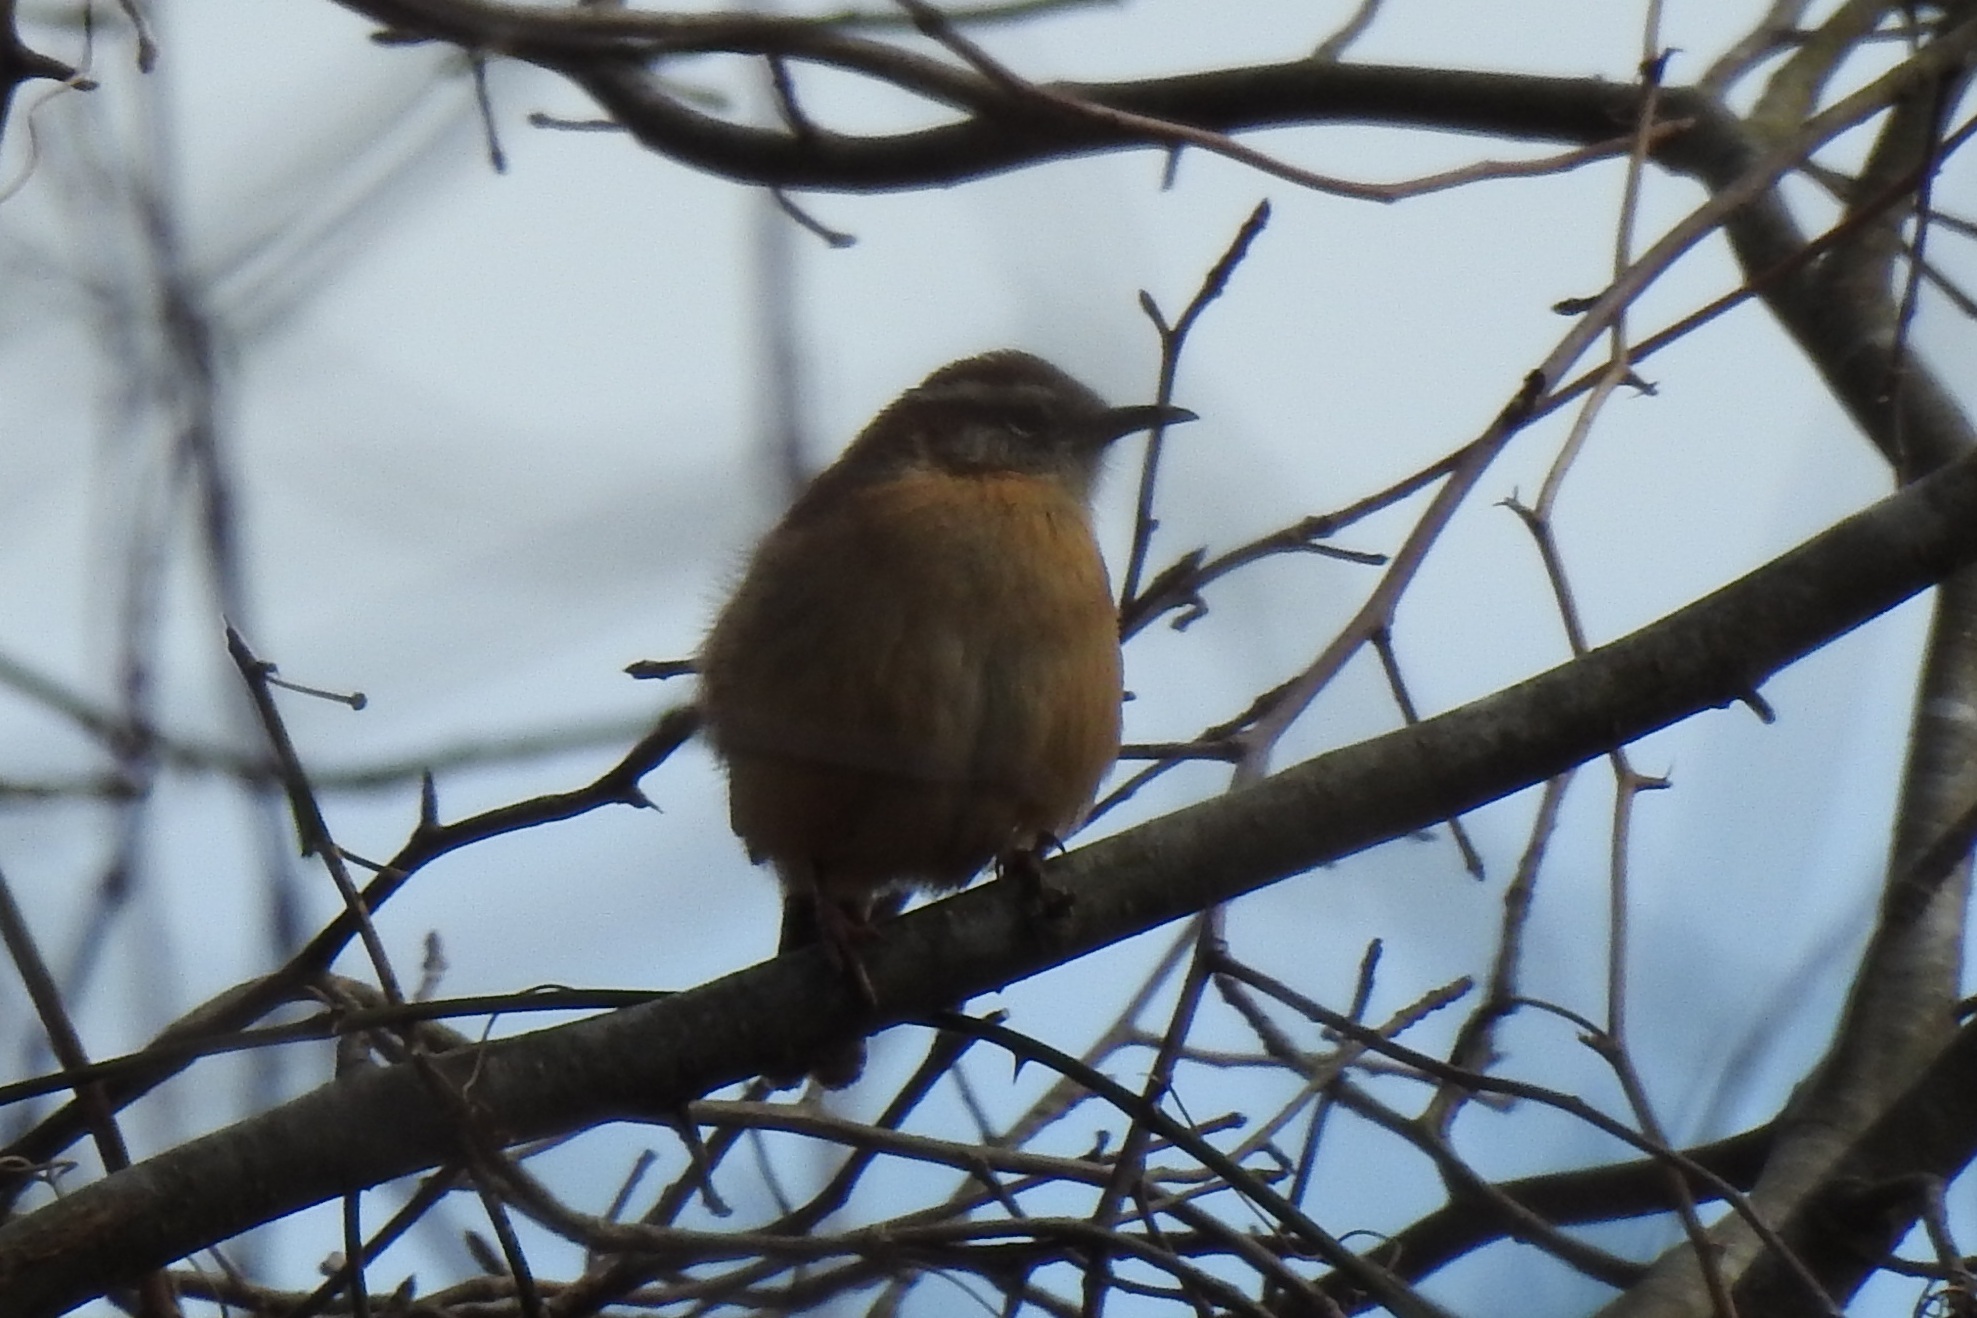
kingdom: Animalia
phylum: Chordata
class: Aves
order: Passeriformes
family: Troglodytidae
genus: Thryothorus
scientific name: Thryothorus ludovicianus
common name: Carolina wren
